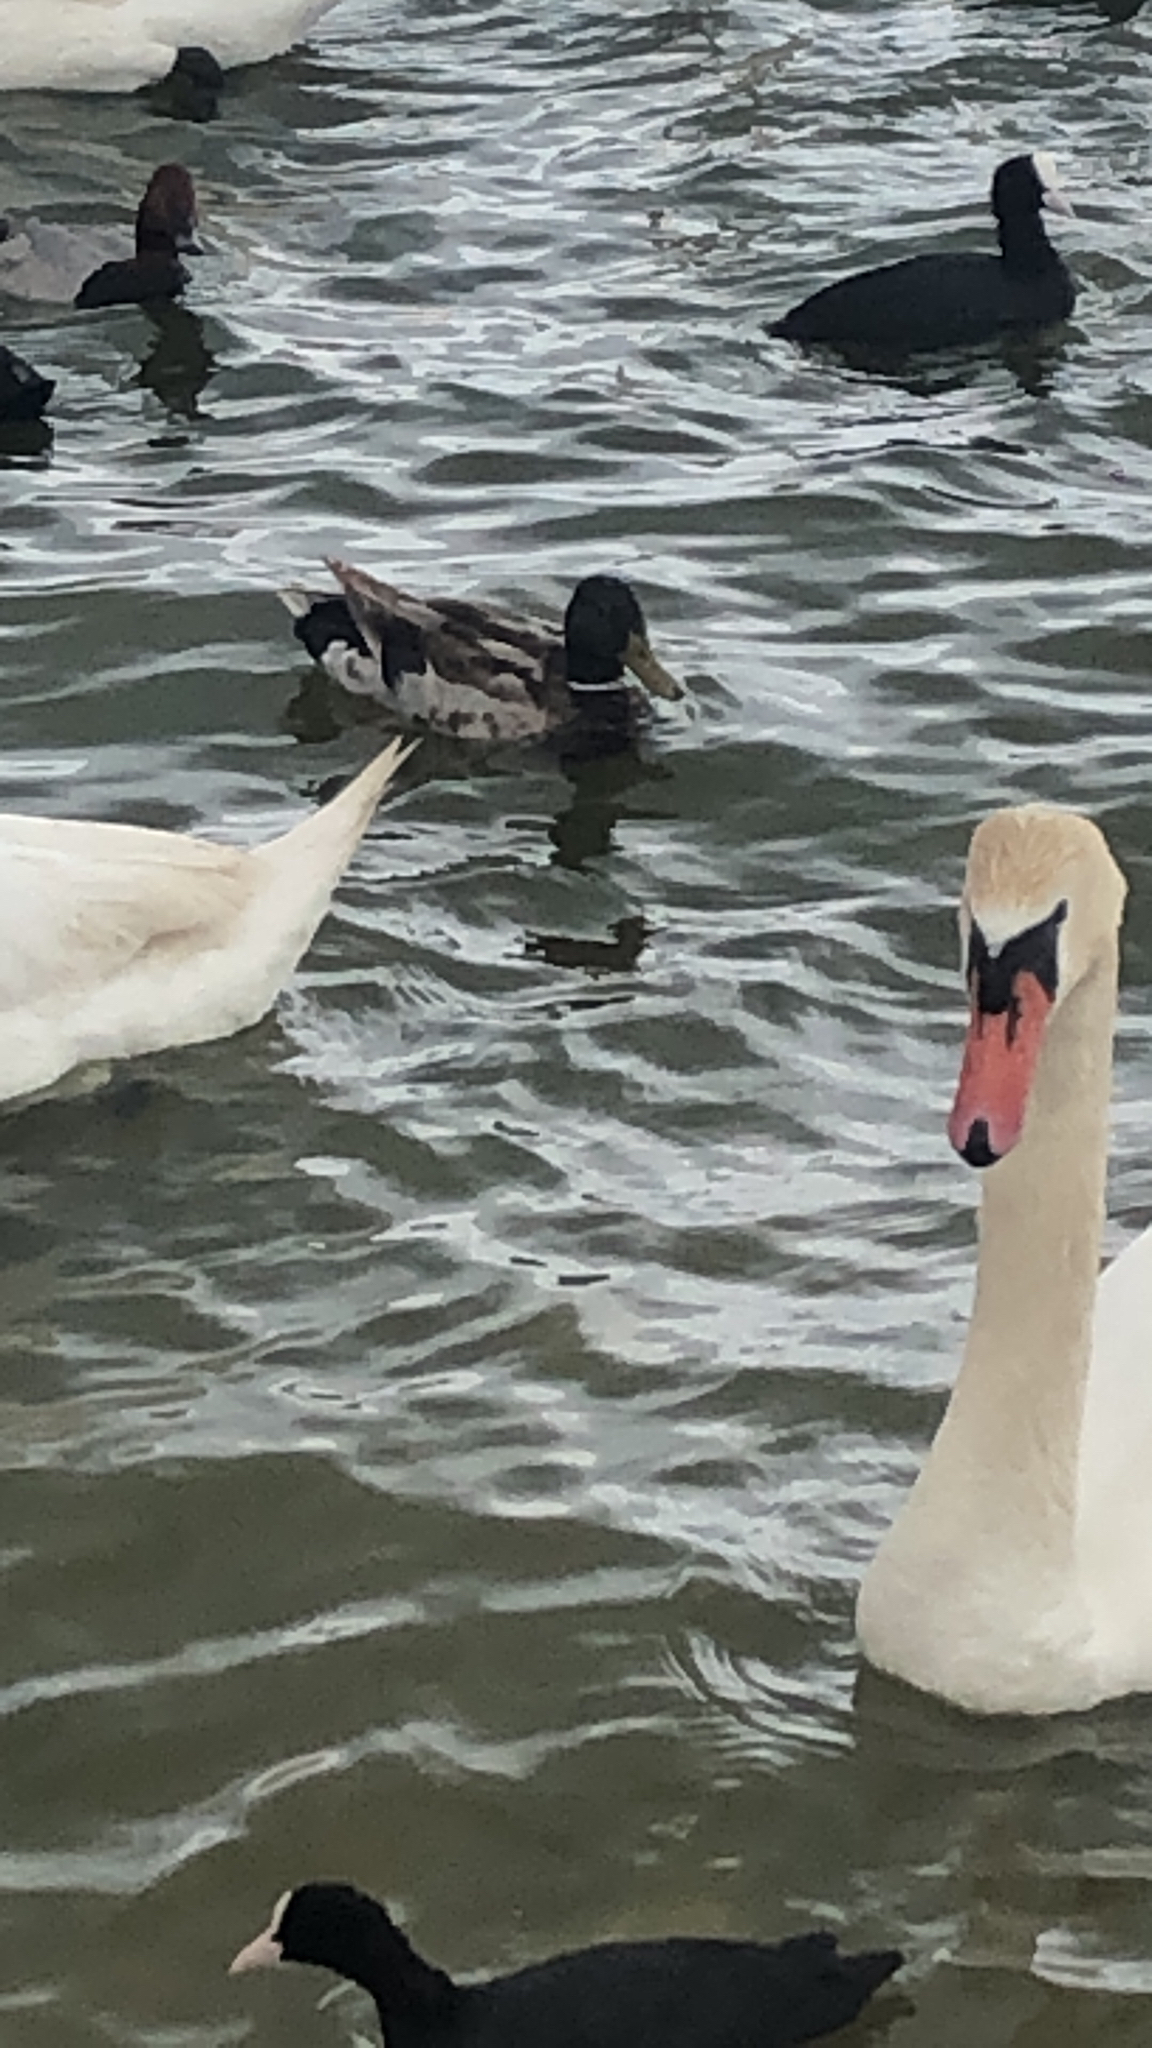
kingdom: Animalia
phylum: Chordata
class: Aves
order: Anseriformes
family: Anatidae
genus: Anas
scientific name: Anas platyrhynchos
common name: Mallard
